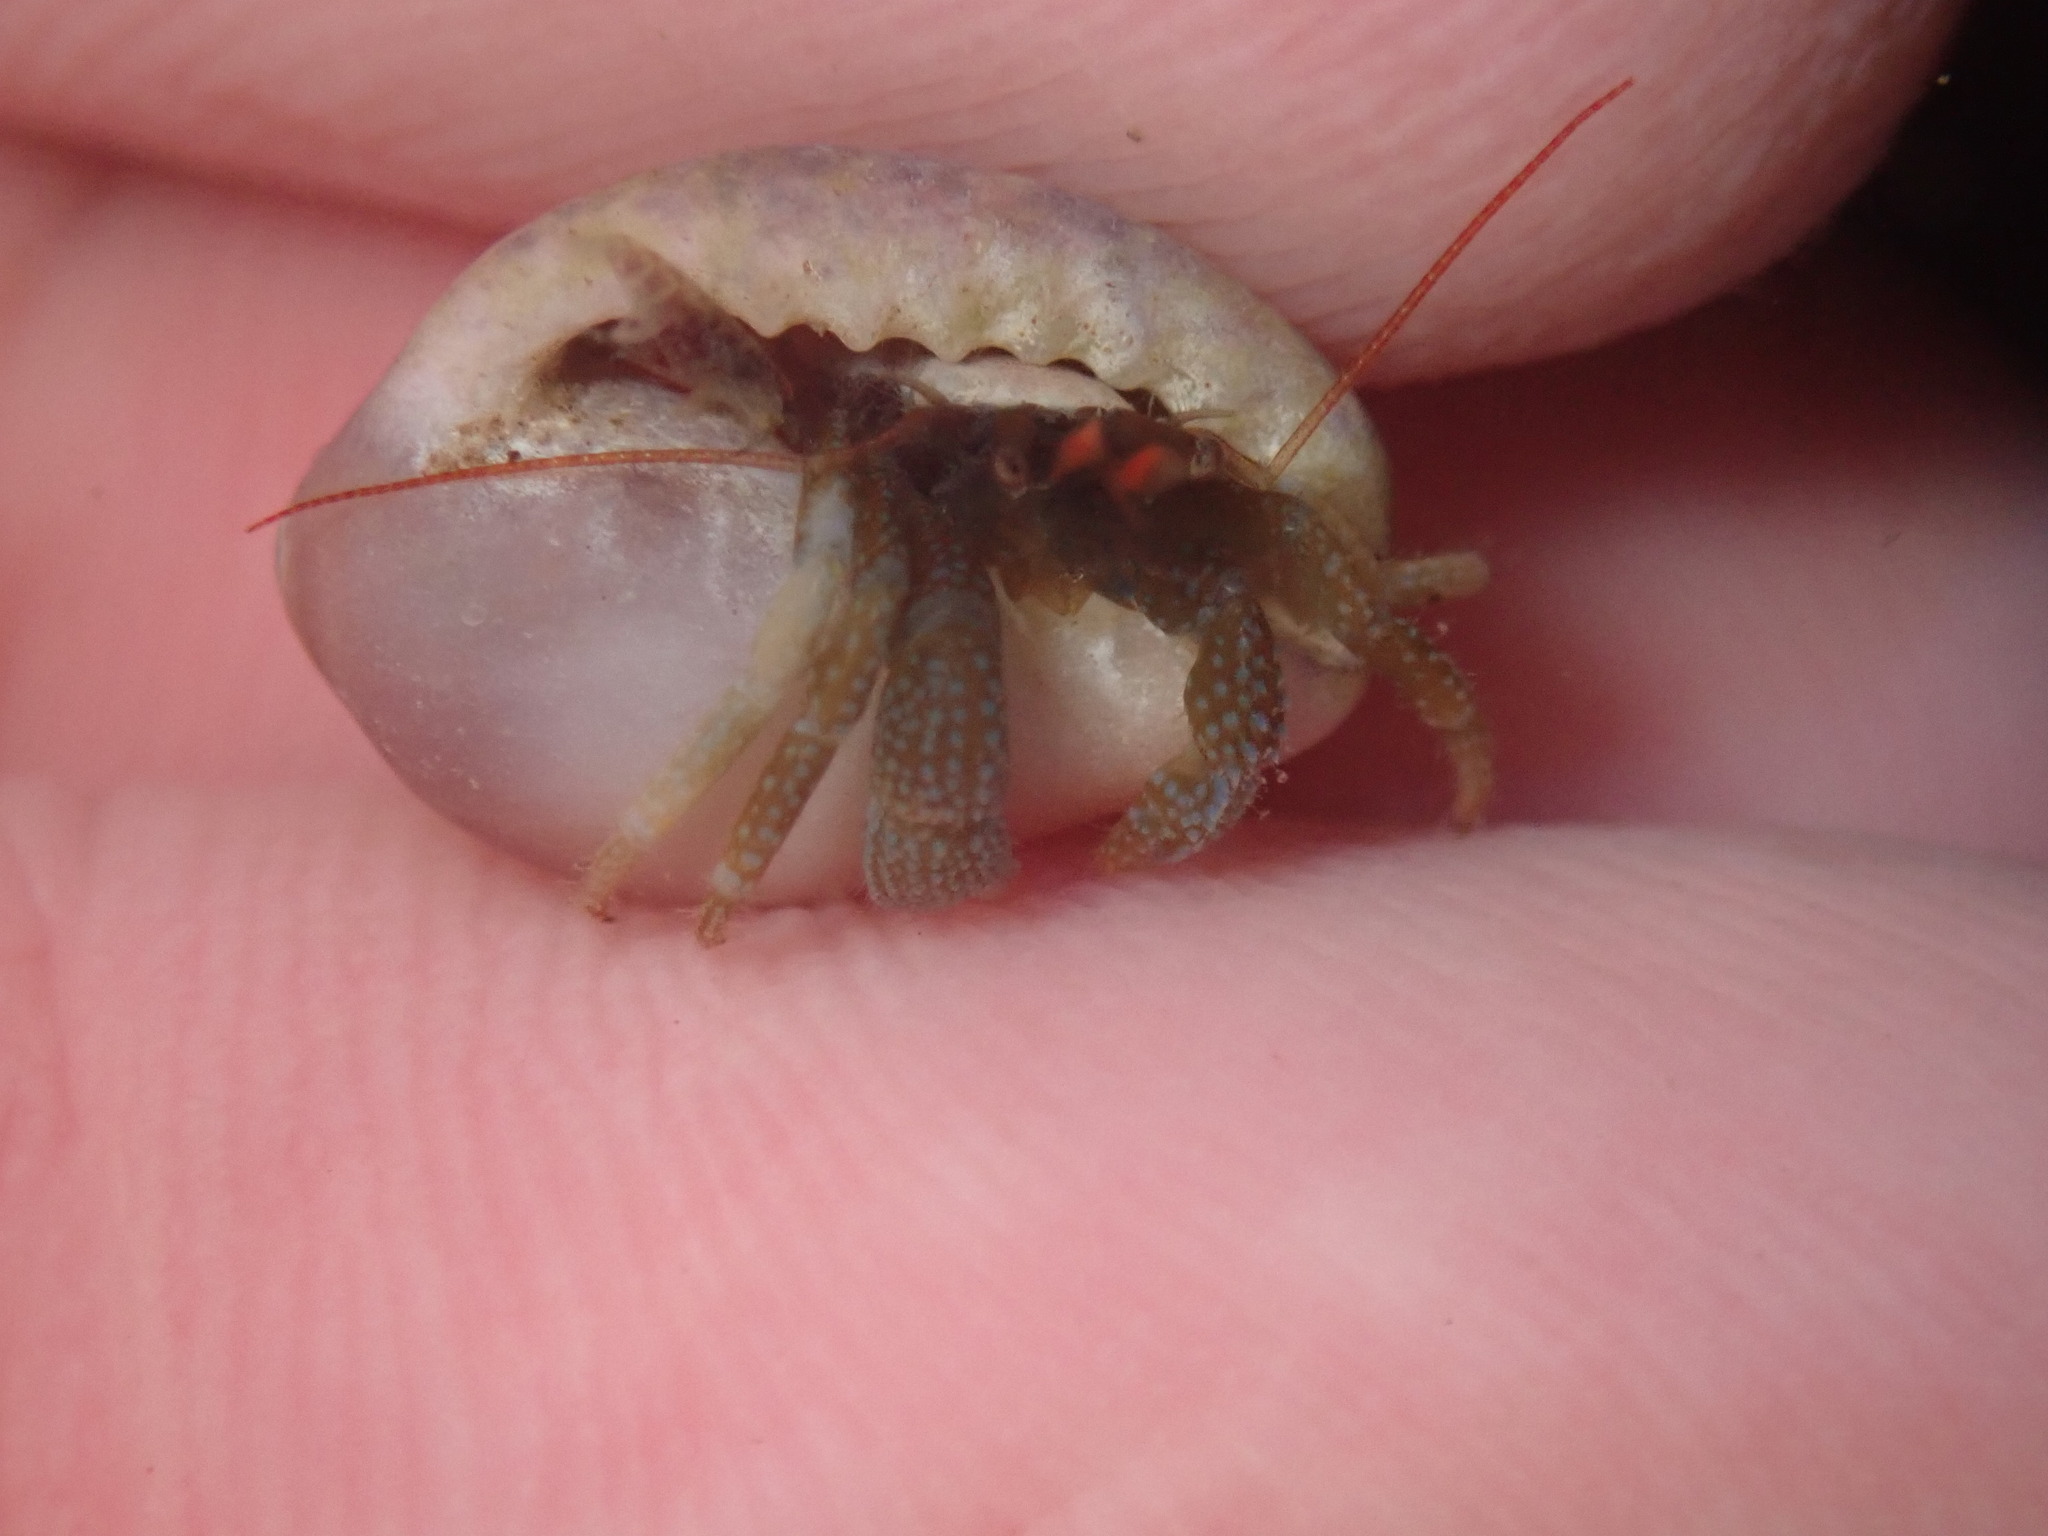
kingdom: Animalia
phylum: Arthropoda
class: Malacostraca
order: Decapoda
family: Paguridae
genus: Pagurus
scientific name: Pagurus granosimanus
